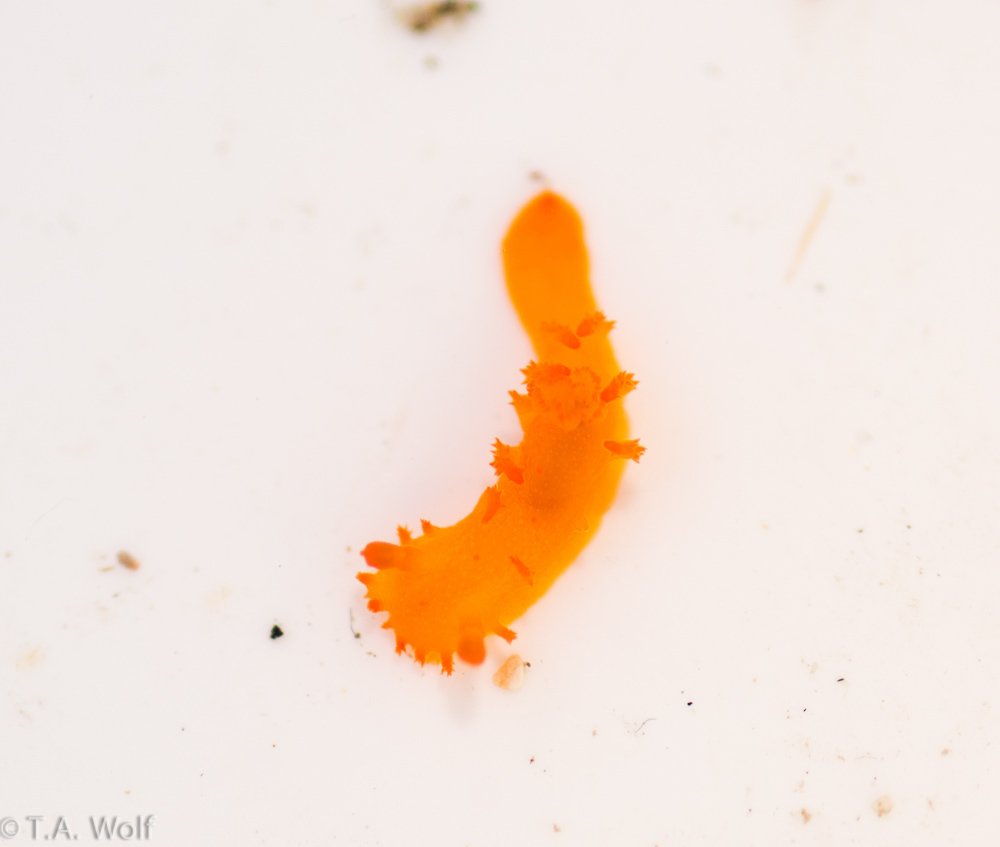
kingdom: Animalia
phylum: Mollusca
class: Gastropoda
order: Nudibranchia
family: Polyceridae
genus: Triopha
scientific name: Triopha maculata
